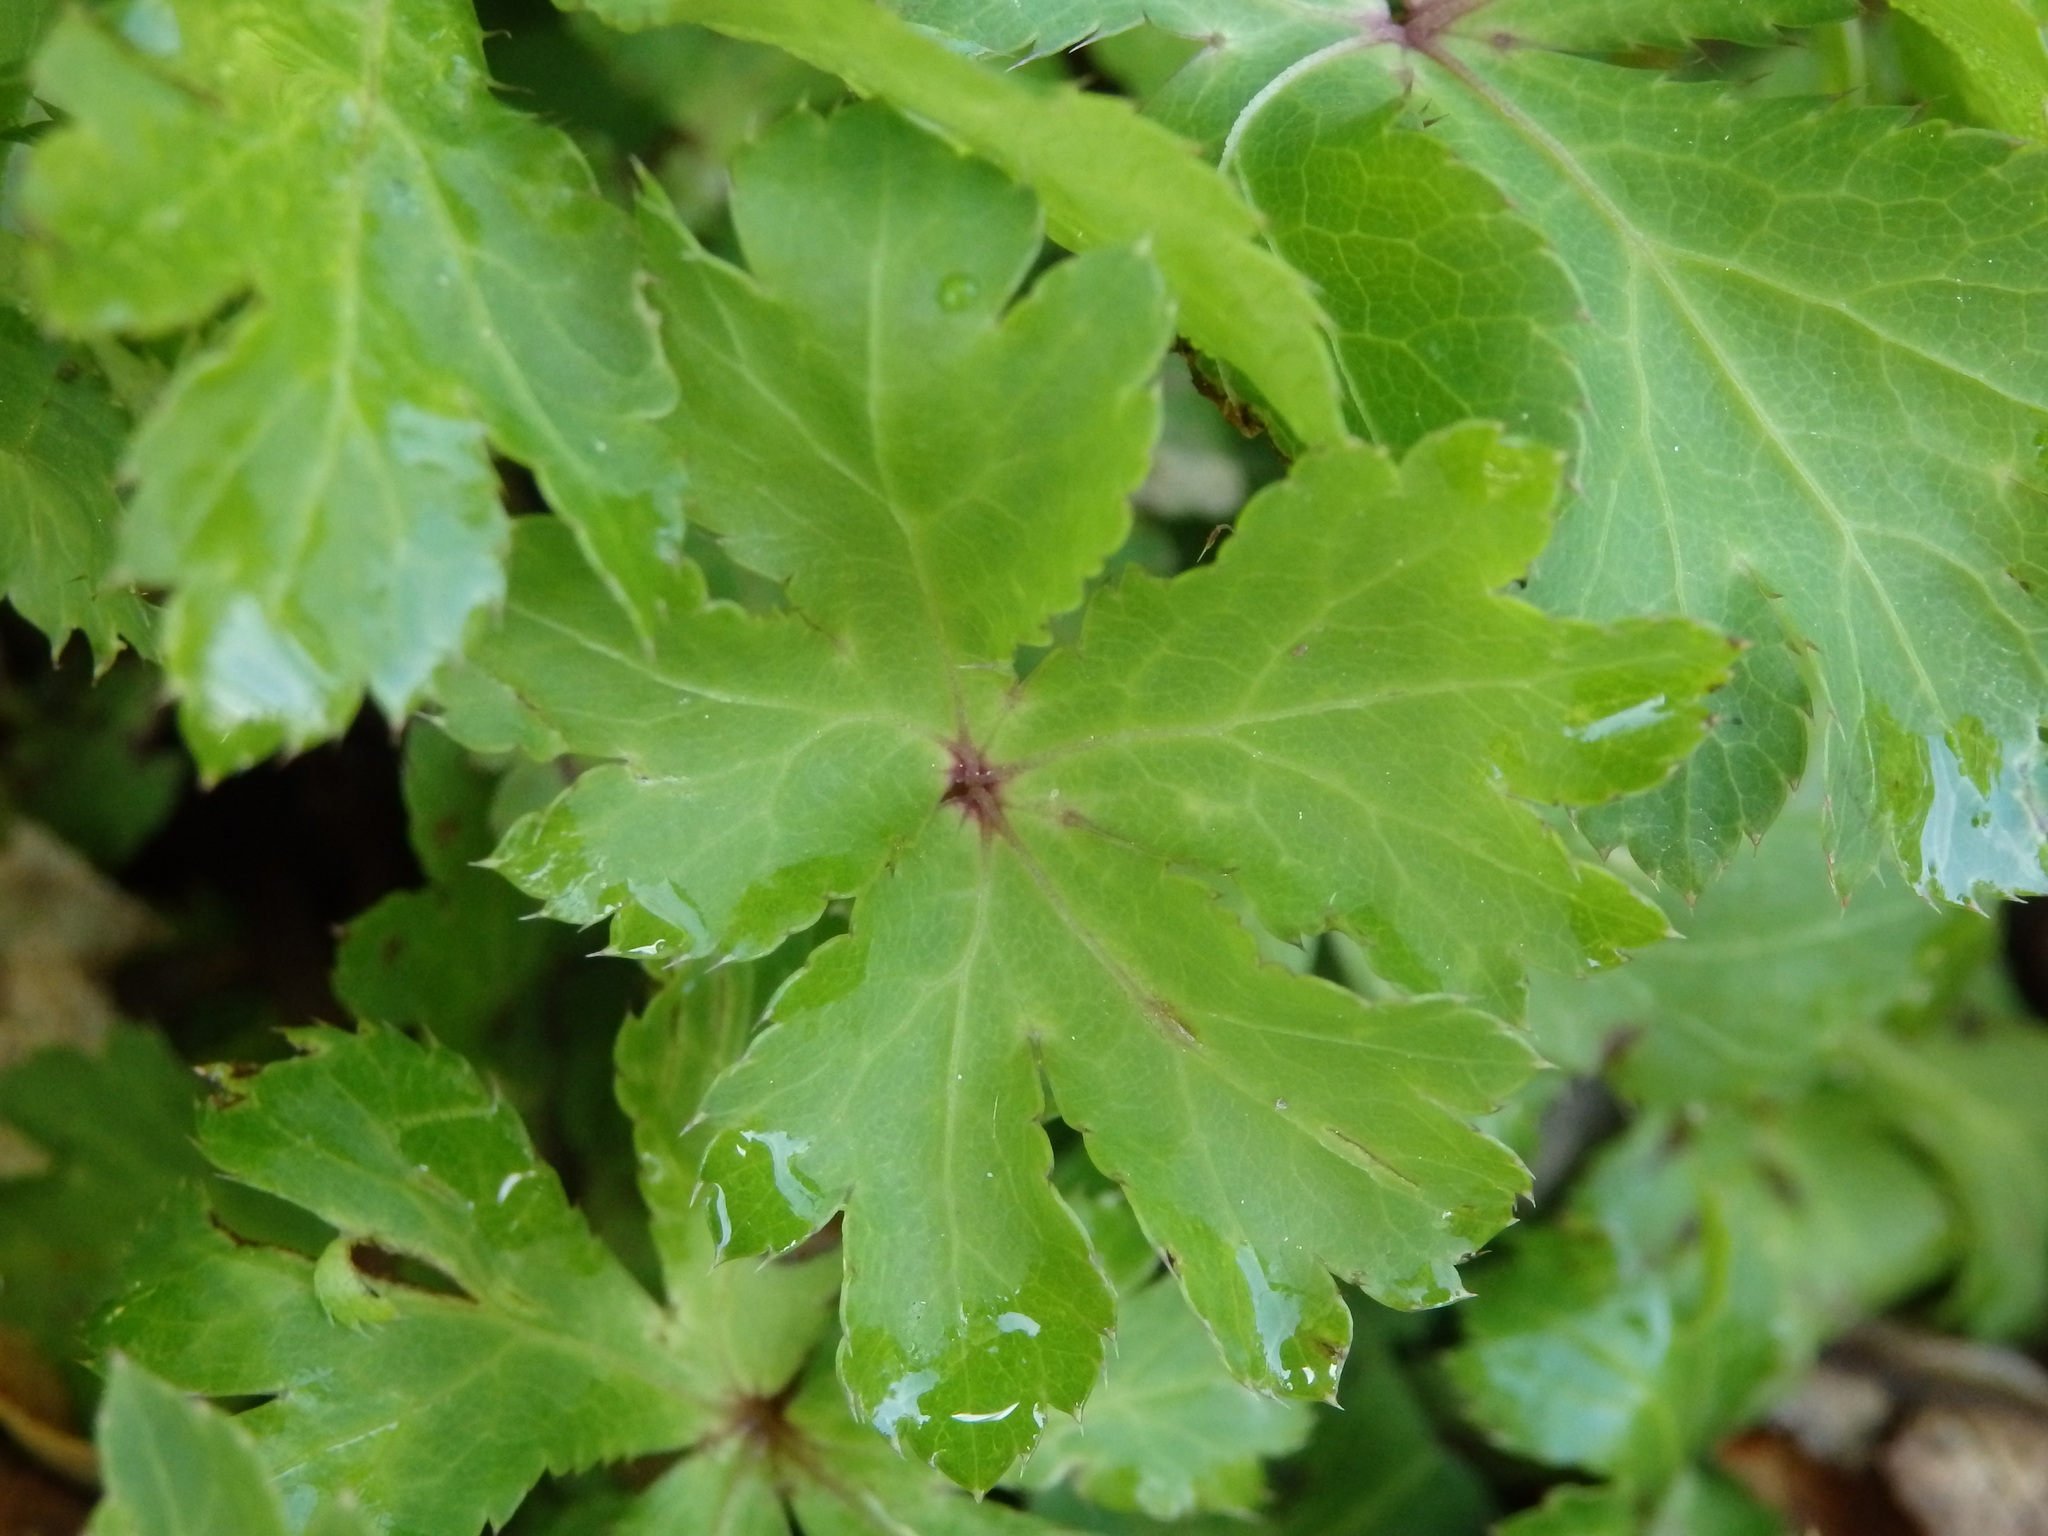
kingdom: Plantae
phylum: Tracheophyta
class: Magnoliopsida
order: Apiales
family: Apiaceae
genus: Sanicula
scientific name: Sanicula europaea
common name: Sanicle
